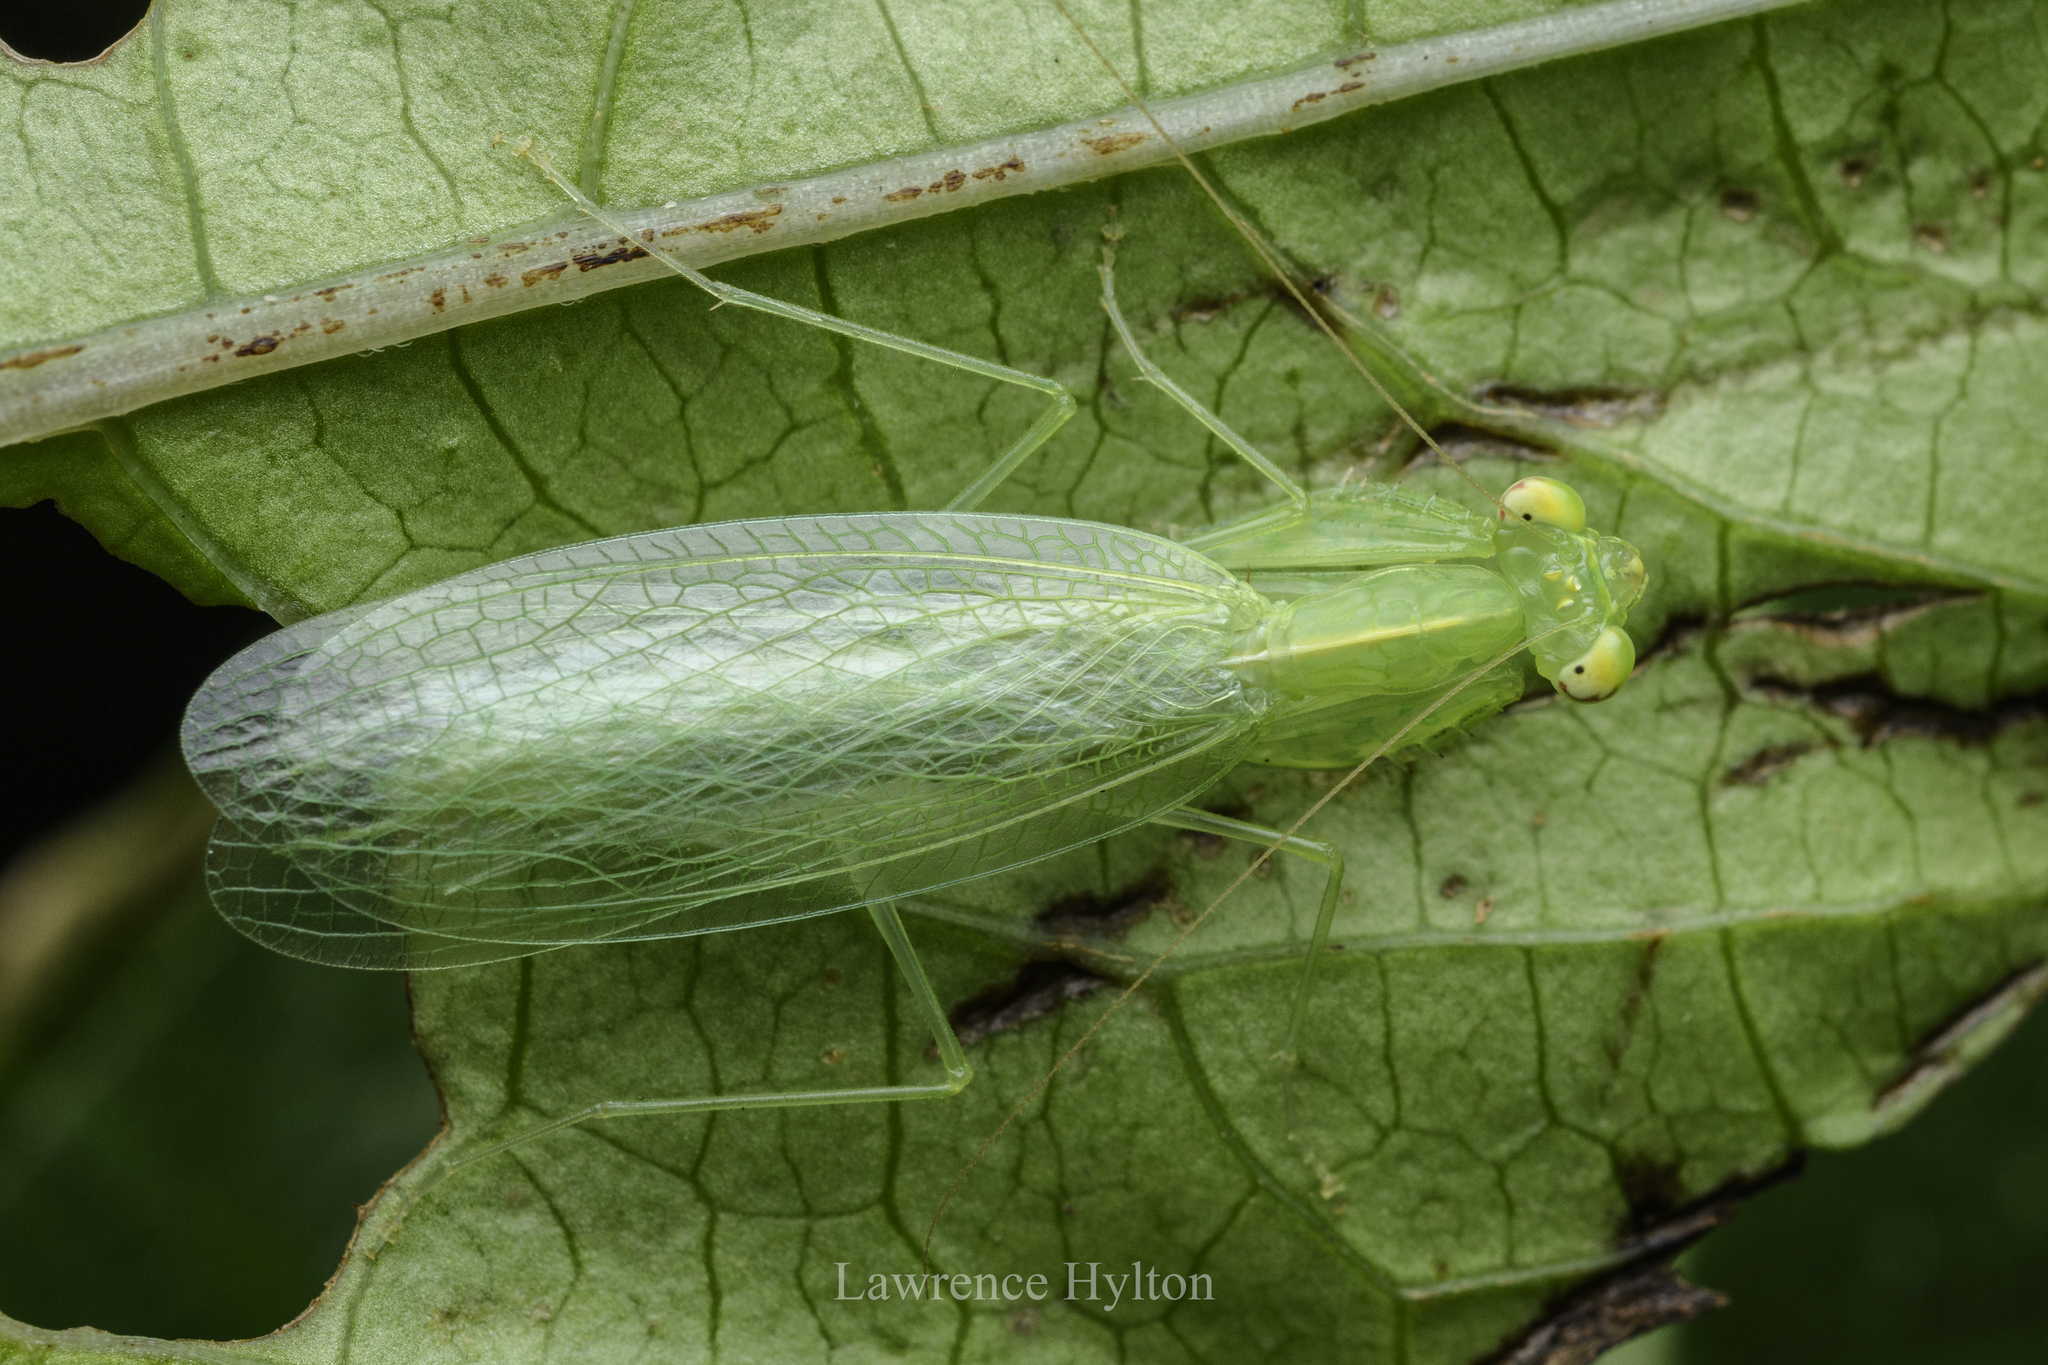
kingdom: Animalia
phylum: Arthropoda
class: Insecta
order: Mantodea
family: Nanomantidae
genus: Tropidomantis
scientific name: Tropidomantis gressitti
